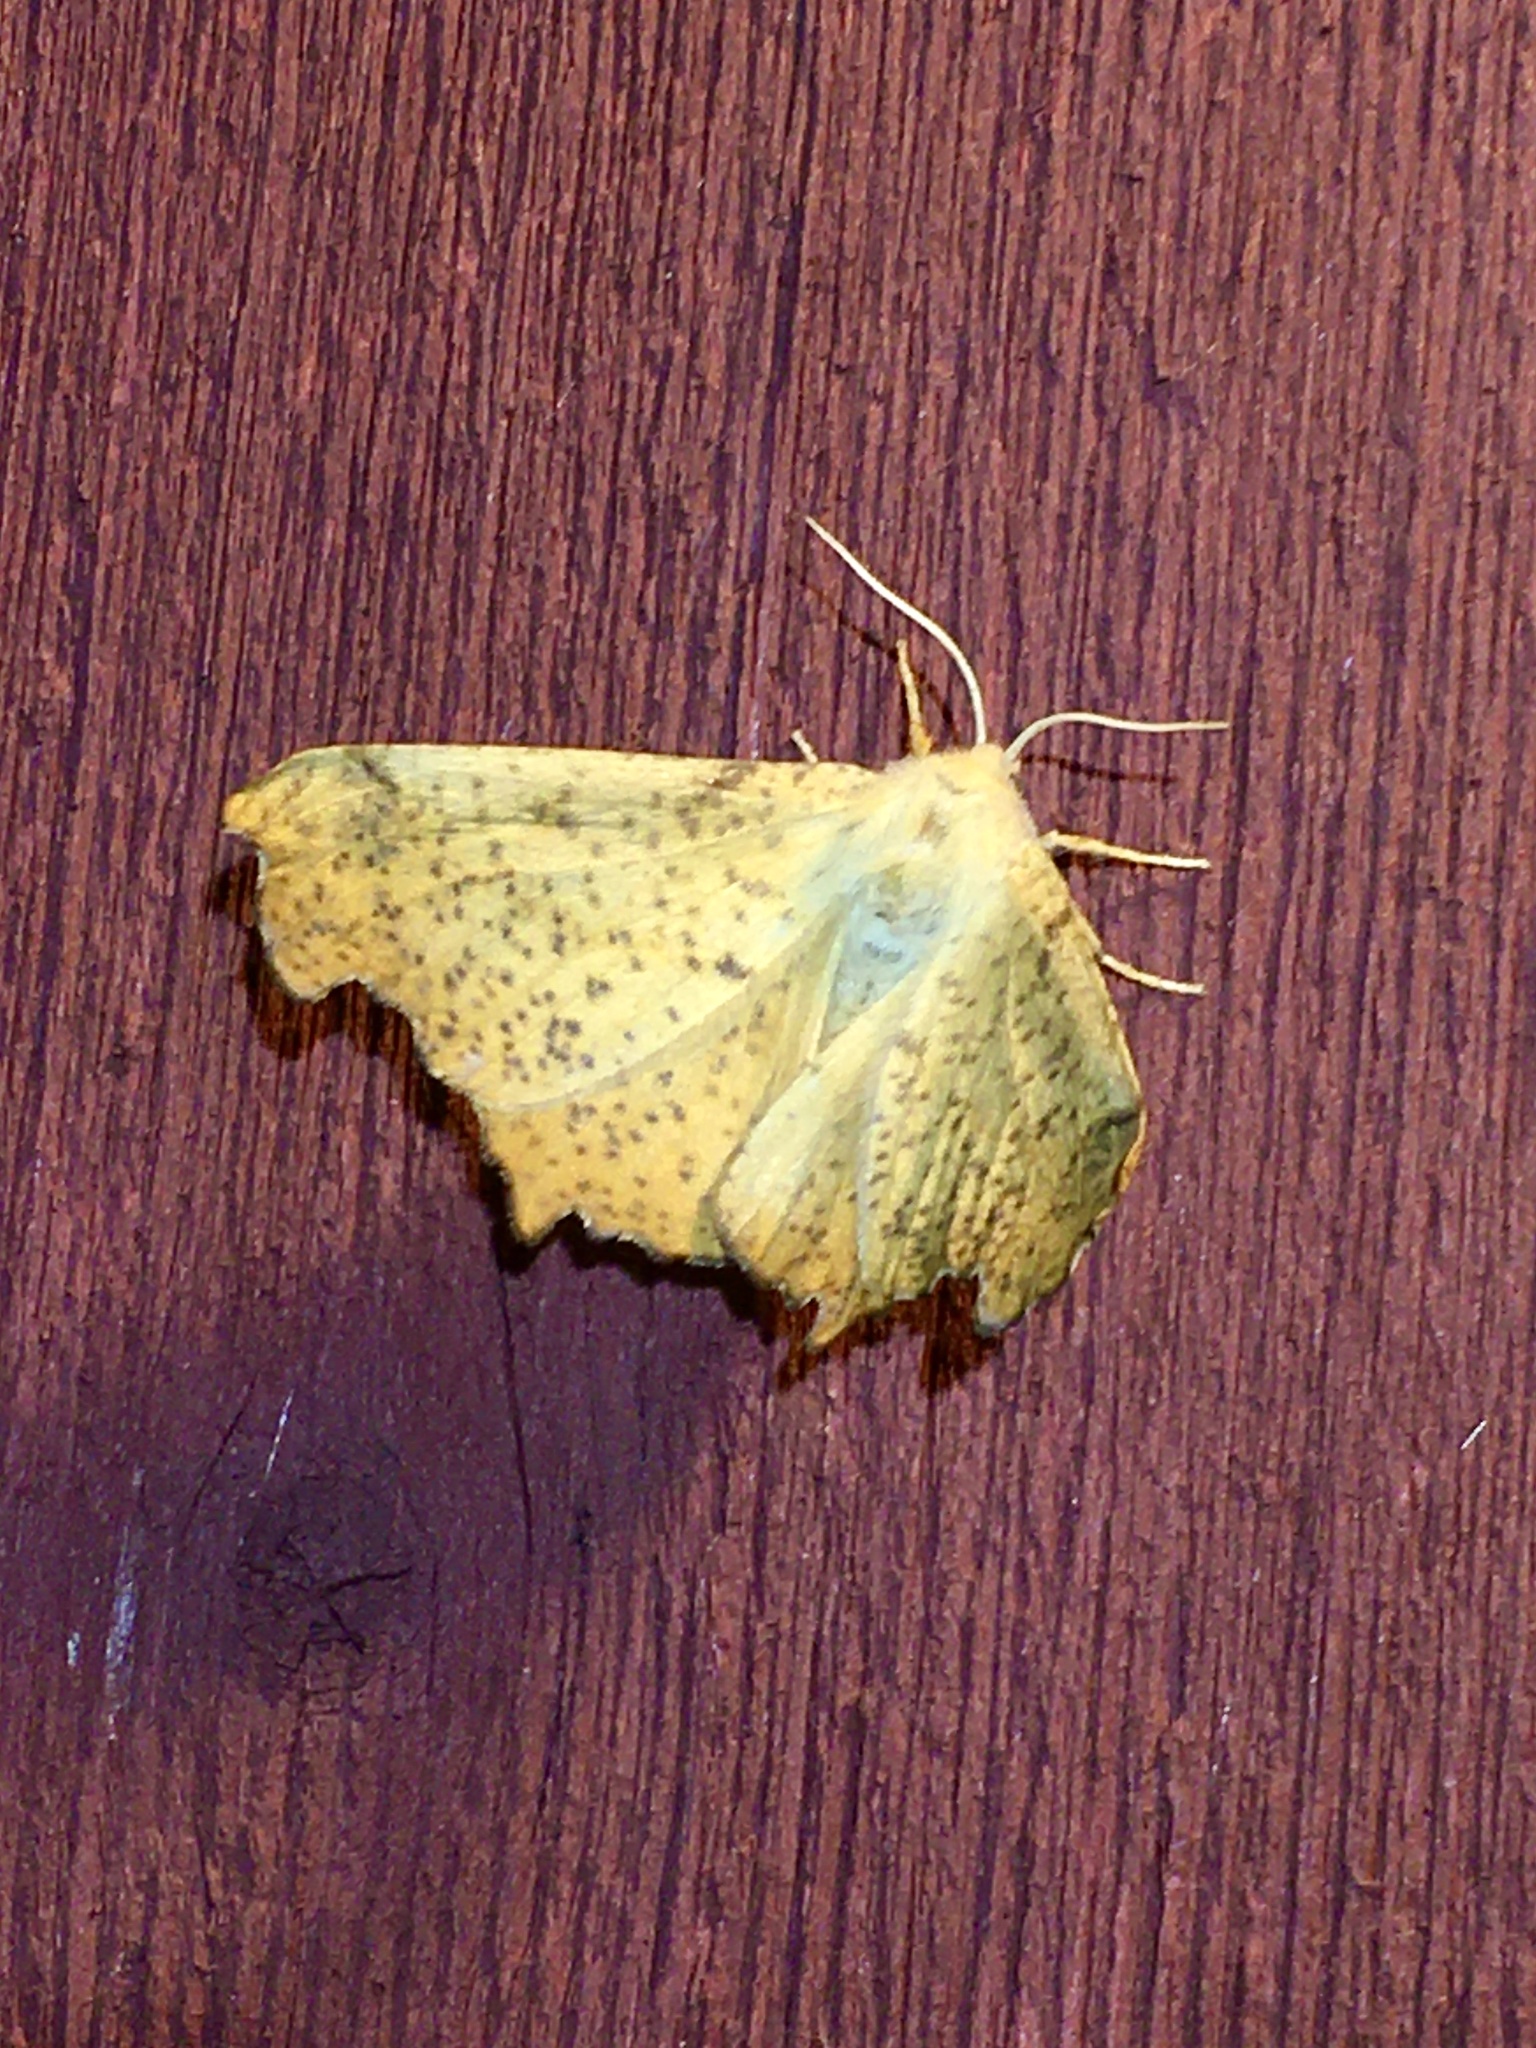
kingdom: Animalia
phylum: Arthropoda
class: Insecta
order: Lepidoptera
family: Geometridae
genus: Ennomos
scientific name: Ennomos magnaria
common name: Maple spanworm
